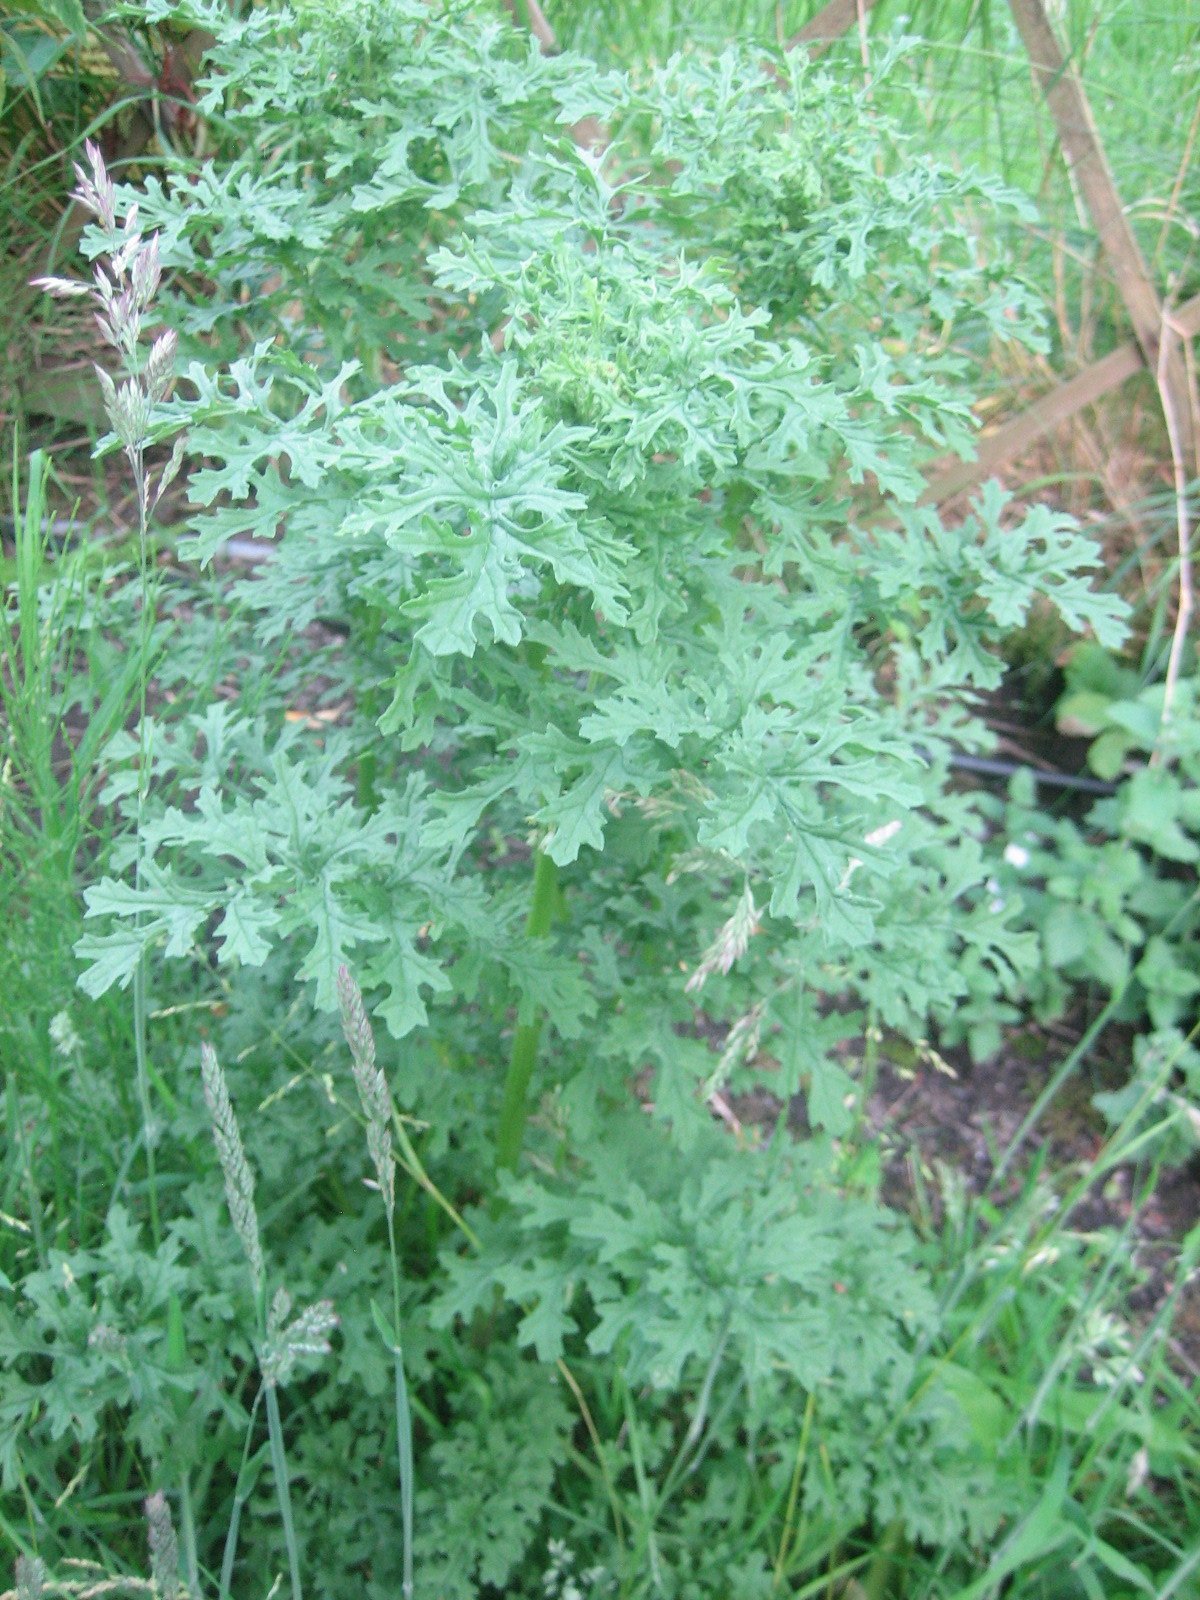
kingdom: Plantae
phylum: Tracheophyta
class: Magnoliopsida
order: Asterales
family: Asteraceae
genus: Jacobaea
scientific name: Jacobaea vulgaris
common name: Stinking willie
